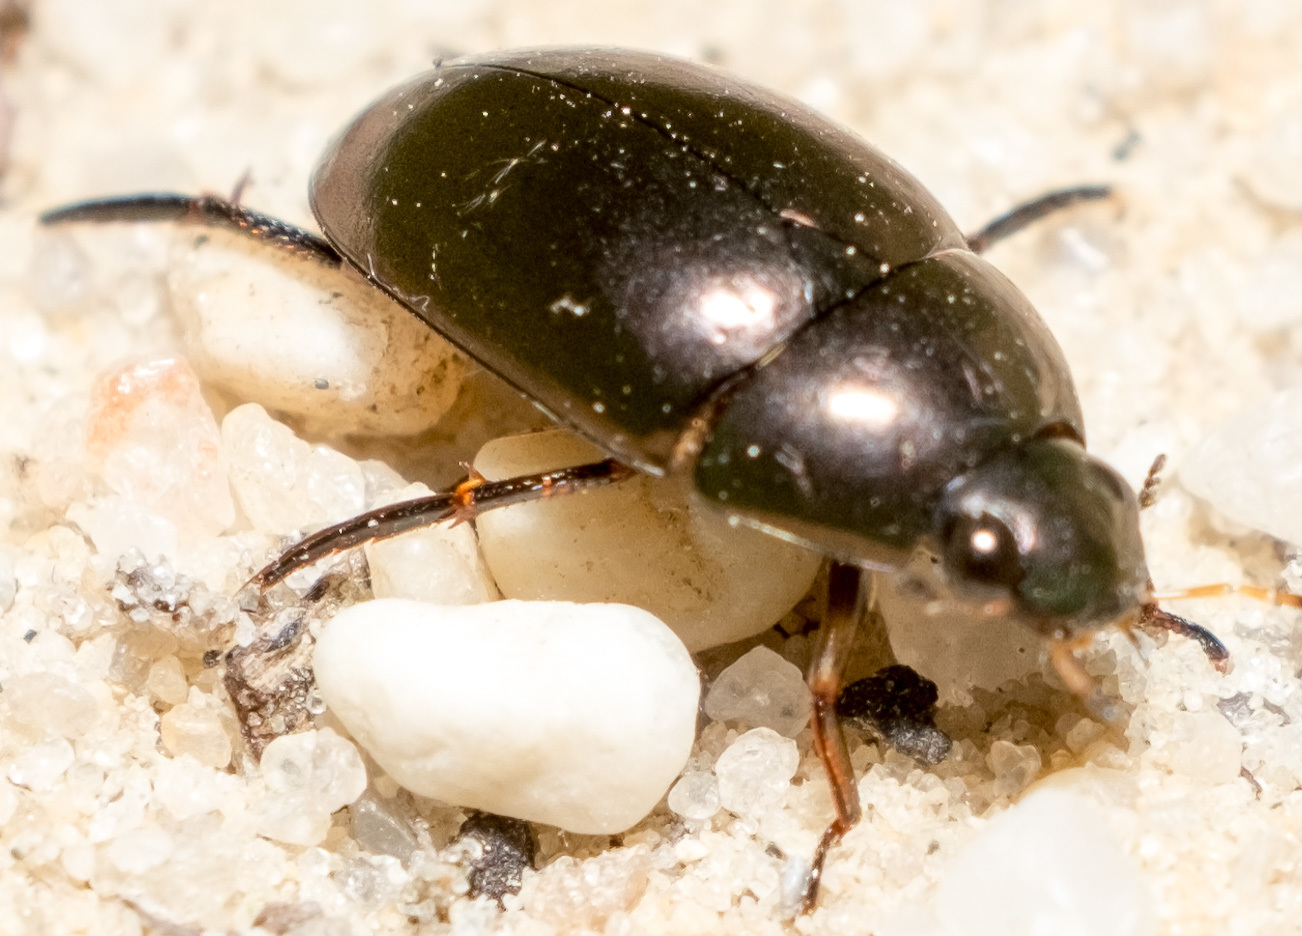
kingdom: Animalia
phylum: Arthropoda
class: Insecta
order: Coleoptera
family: Hydrophilidae
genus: Tropisternus
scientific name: Tropisternus
